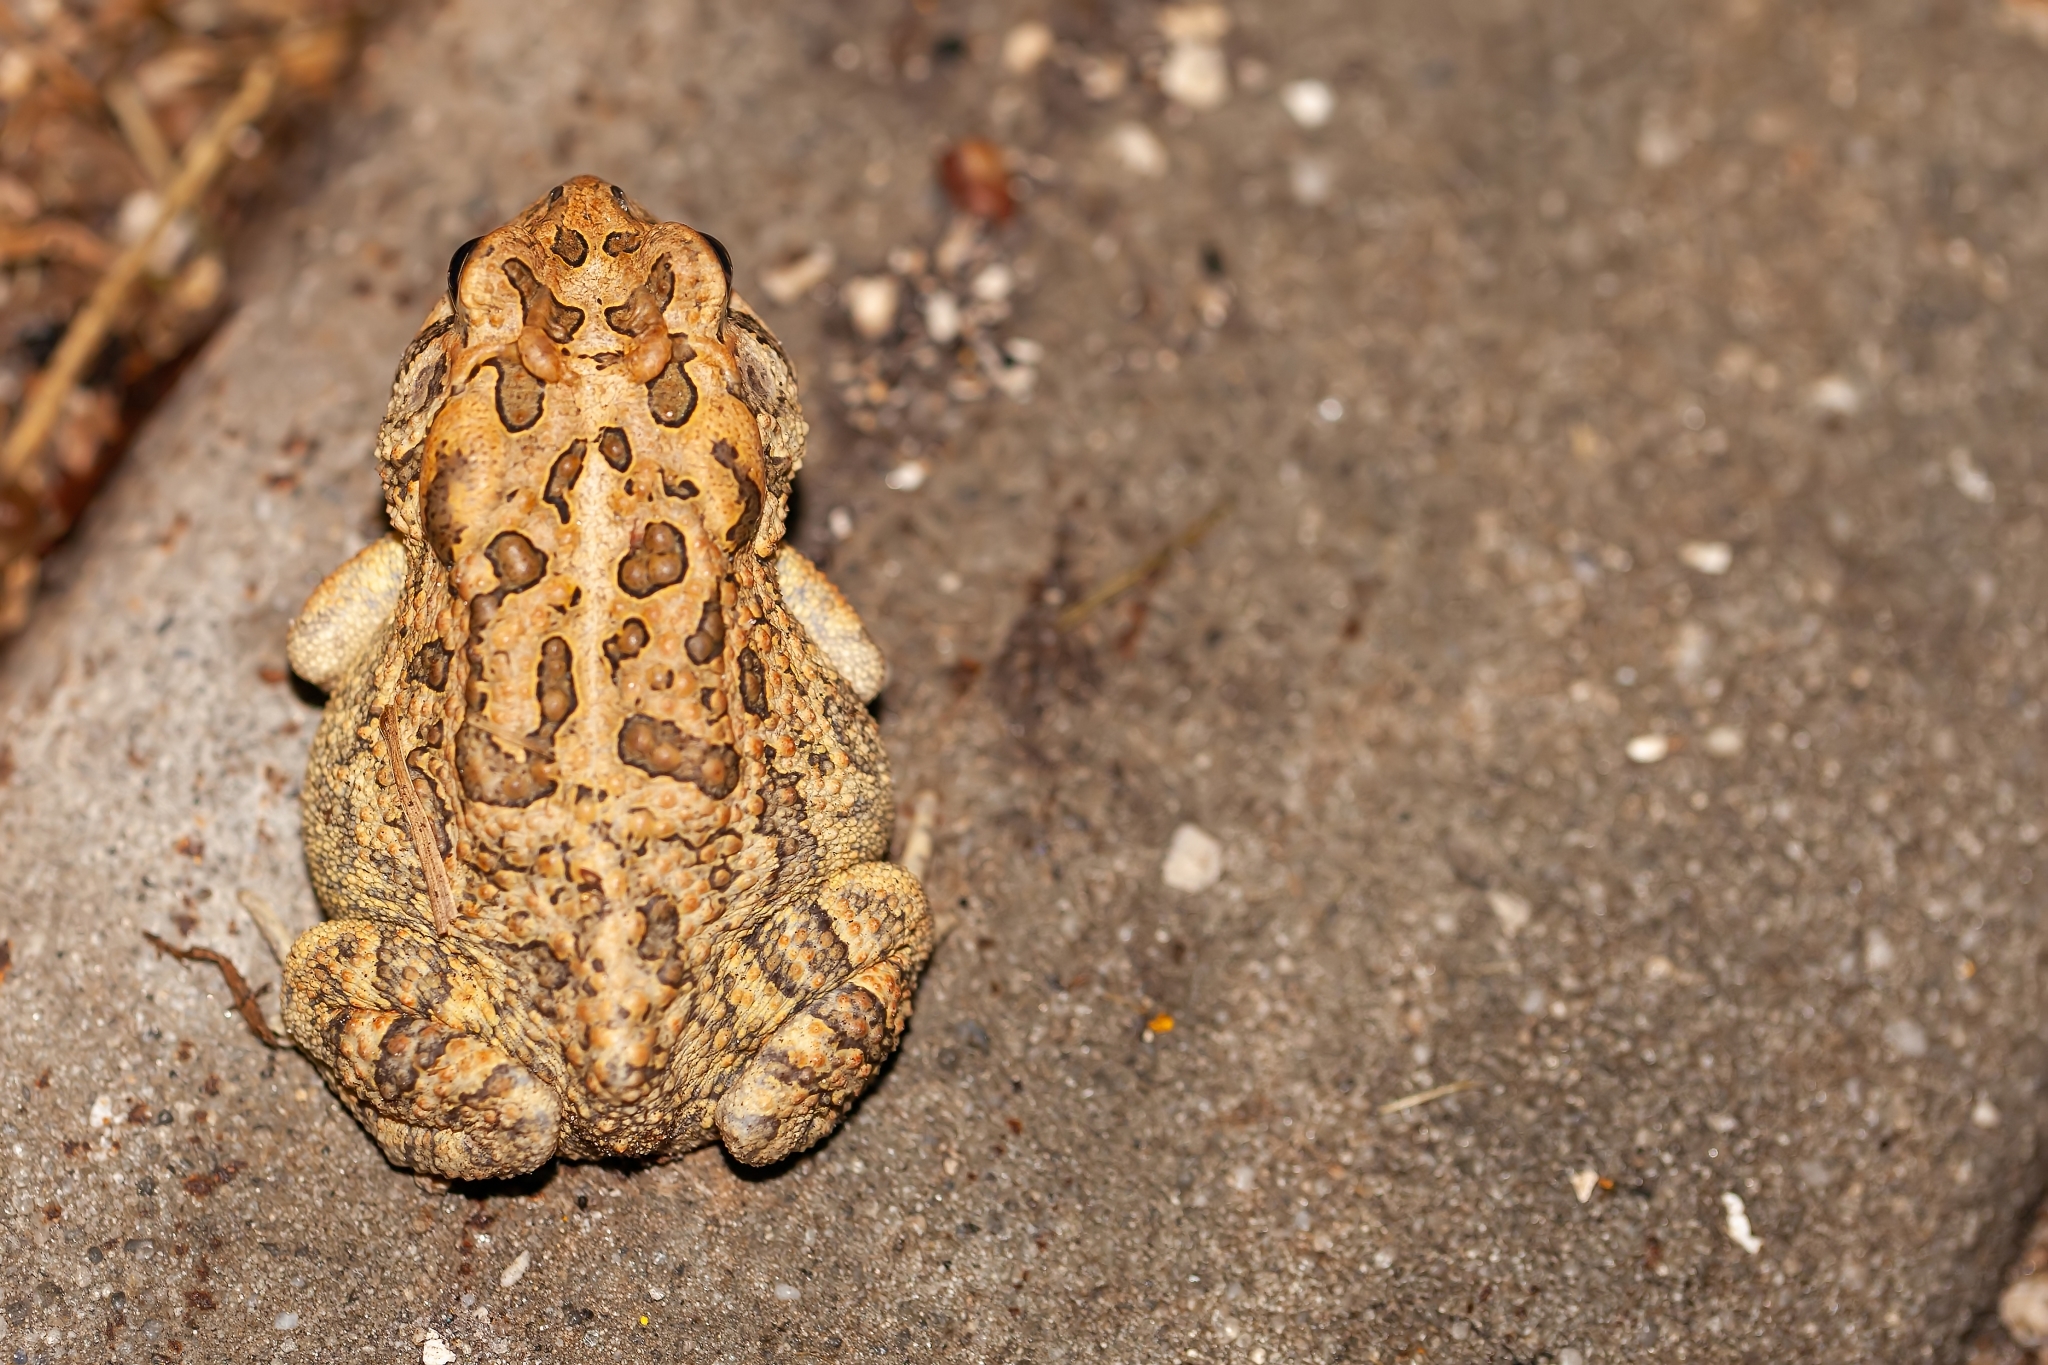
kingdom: Animalia
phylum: Chordata
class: Amphibia
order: Anura
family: Bufonidae
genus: Anaxyrus
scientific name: Anaxyrus terrestris
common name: Southern toad
